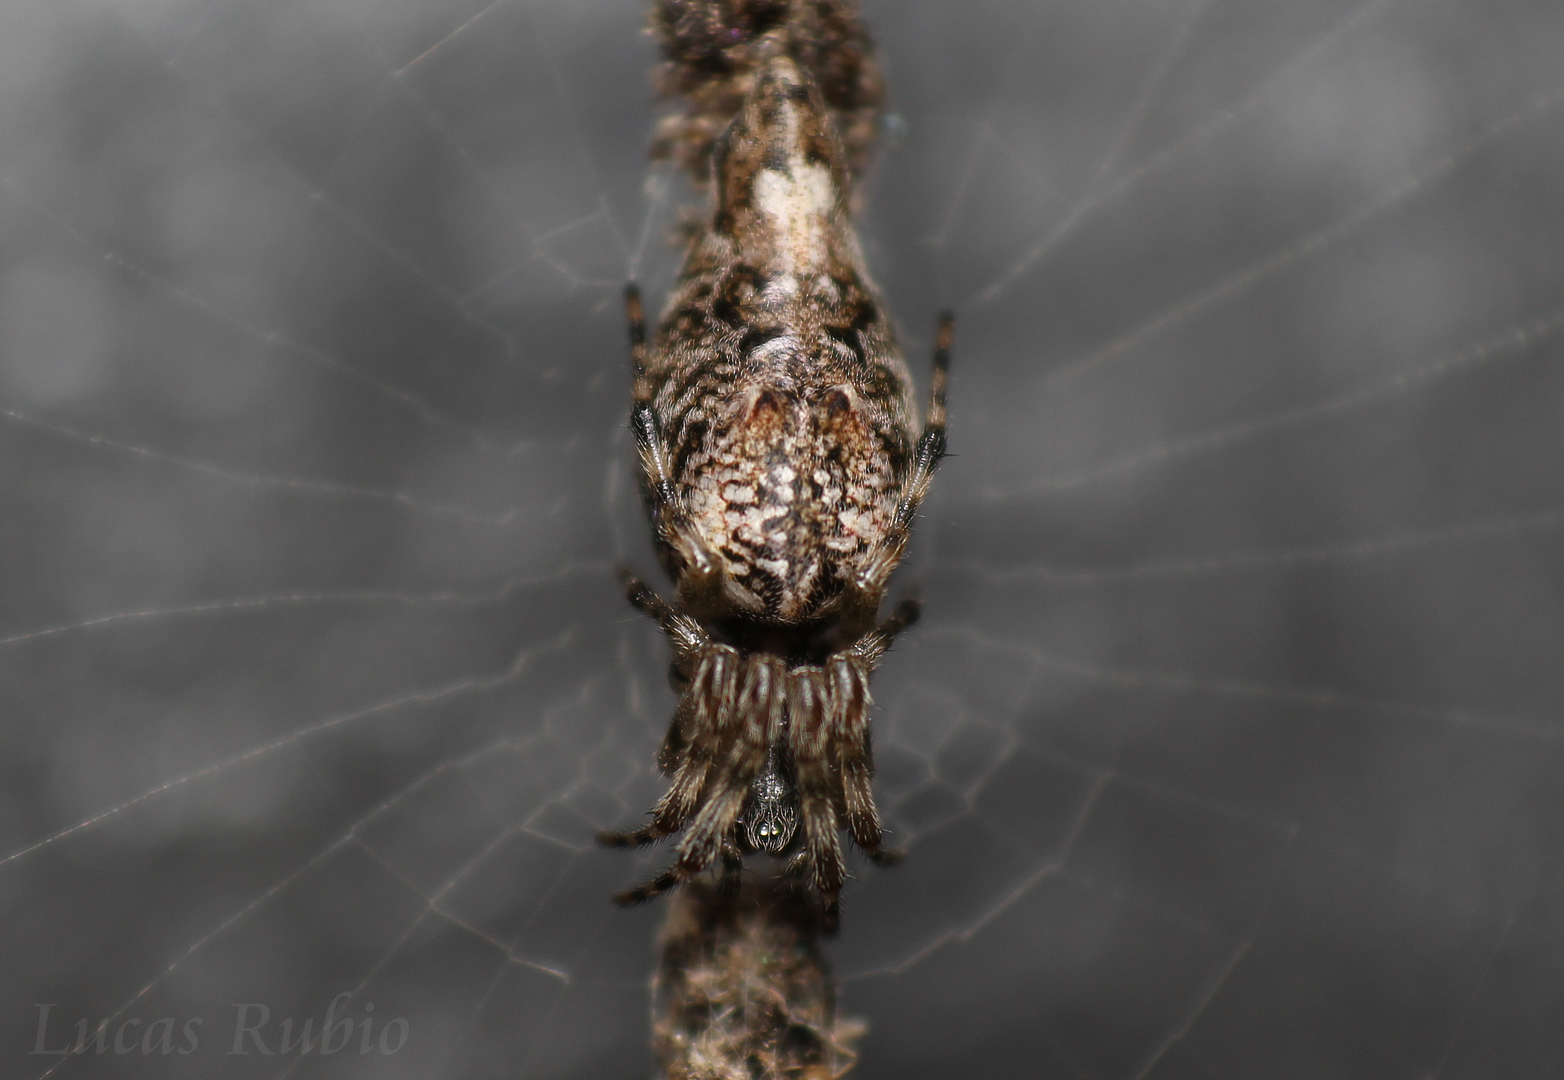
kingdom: Animalia
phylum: Arthropoda
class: Arachnida
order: Araneae
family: Araneidae
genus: Cyclosa
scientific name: Cyclosa machadinho
